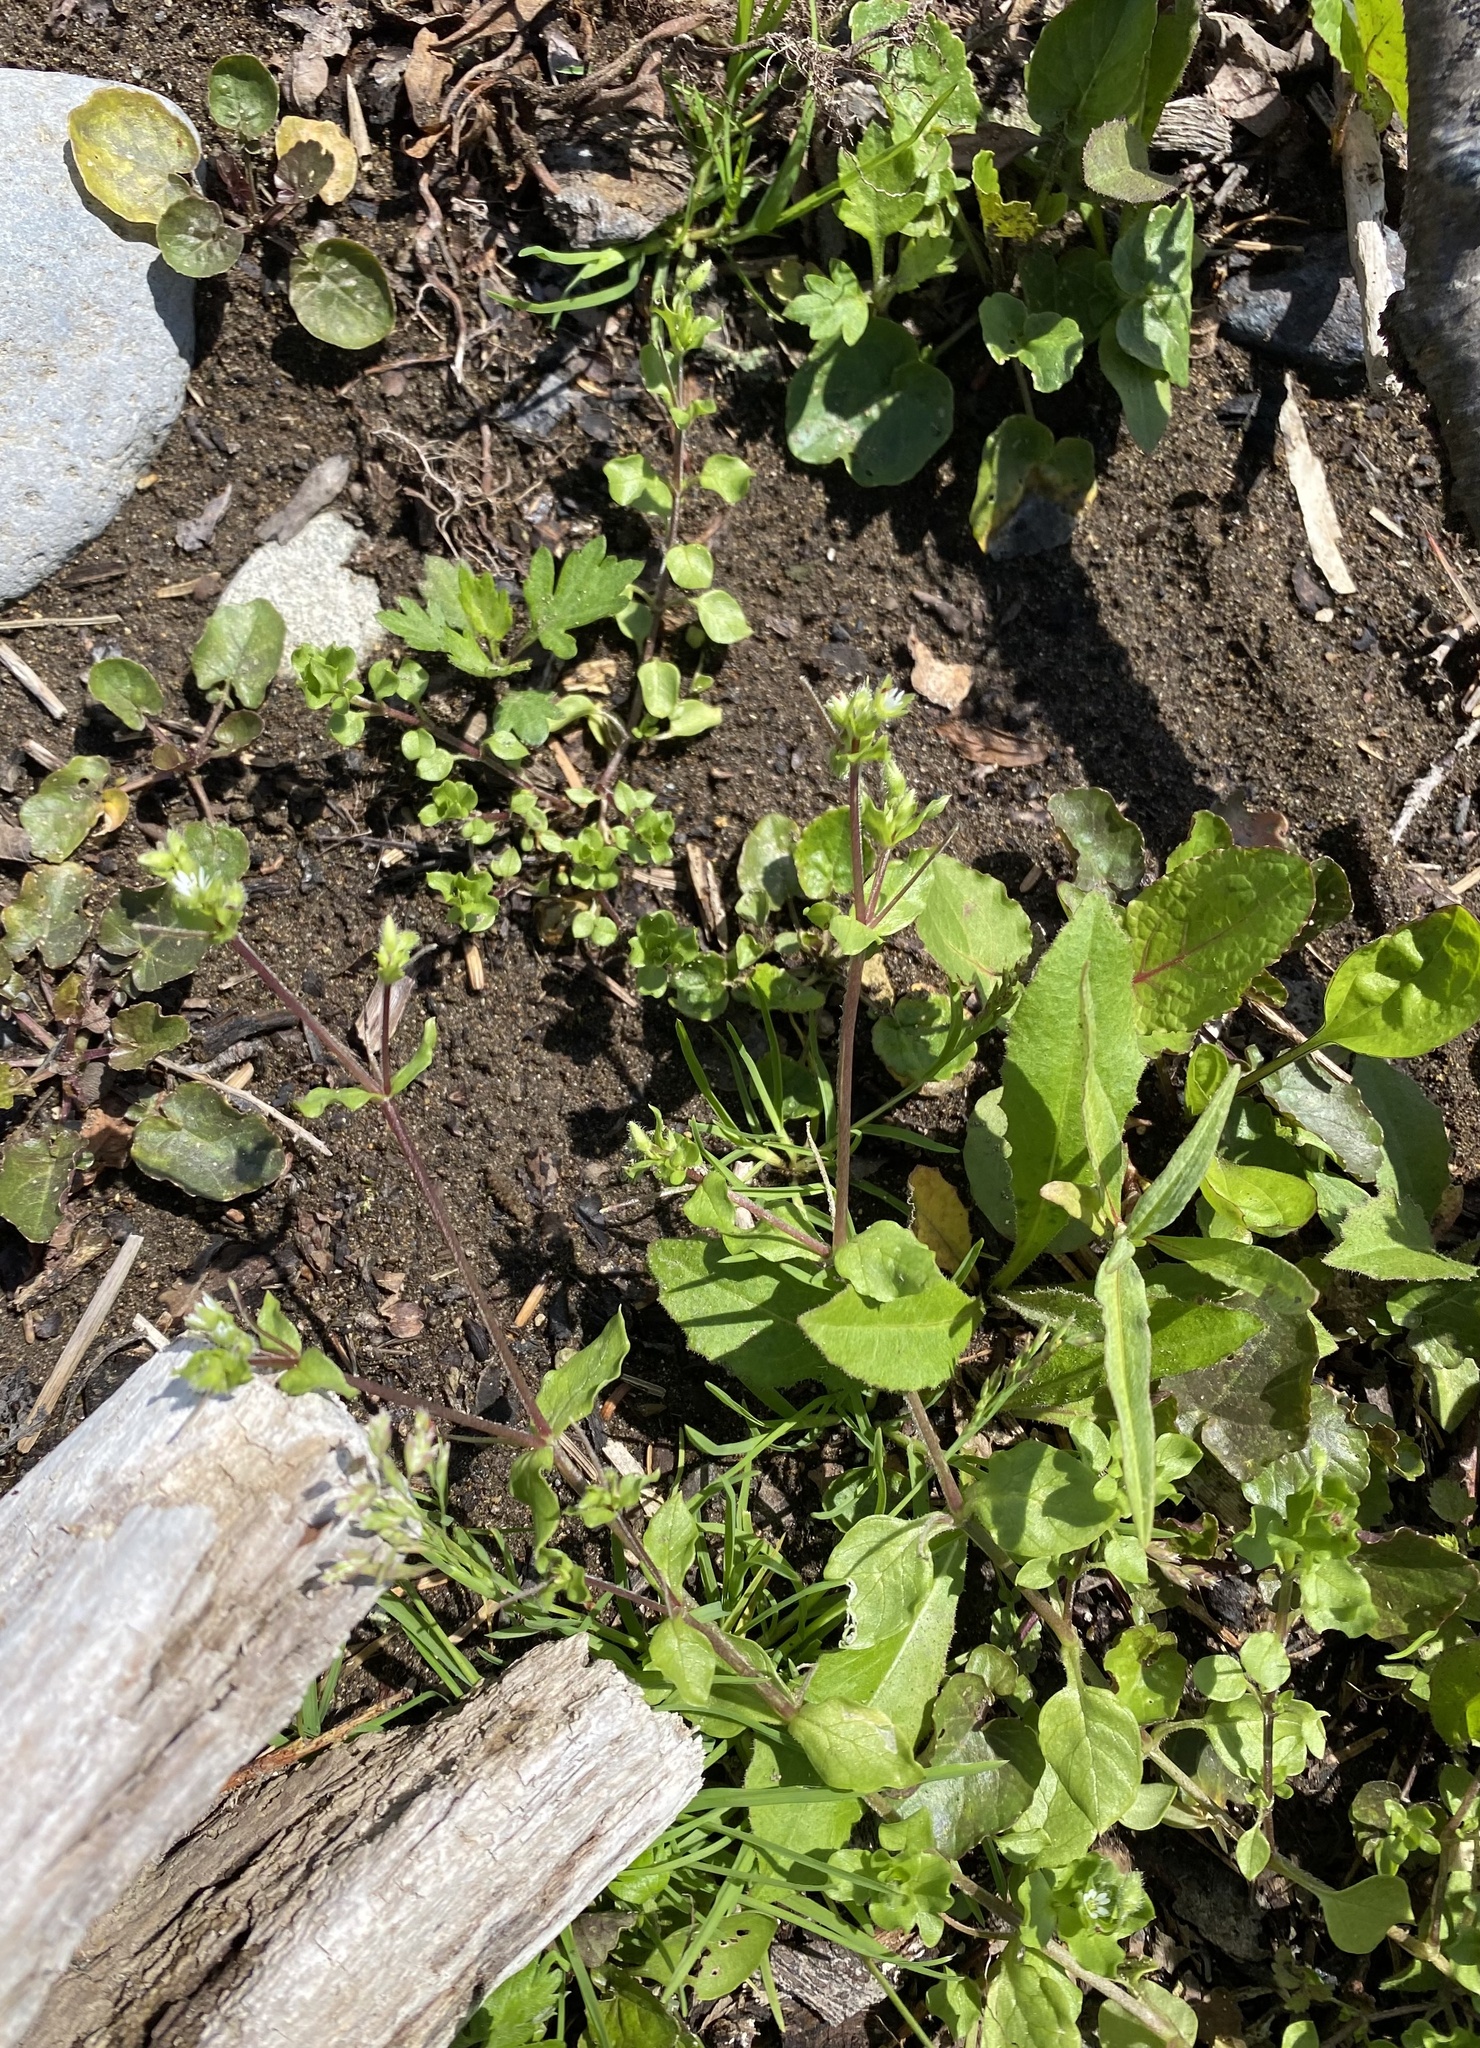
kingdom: Plantae
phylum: Tracheophyta
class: Magnoliopsida
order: Caryophyllales
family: Caryophyllaceae
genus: Stellaria
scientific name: Stellaria media
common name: Common chickweed
